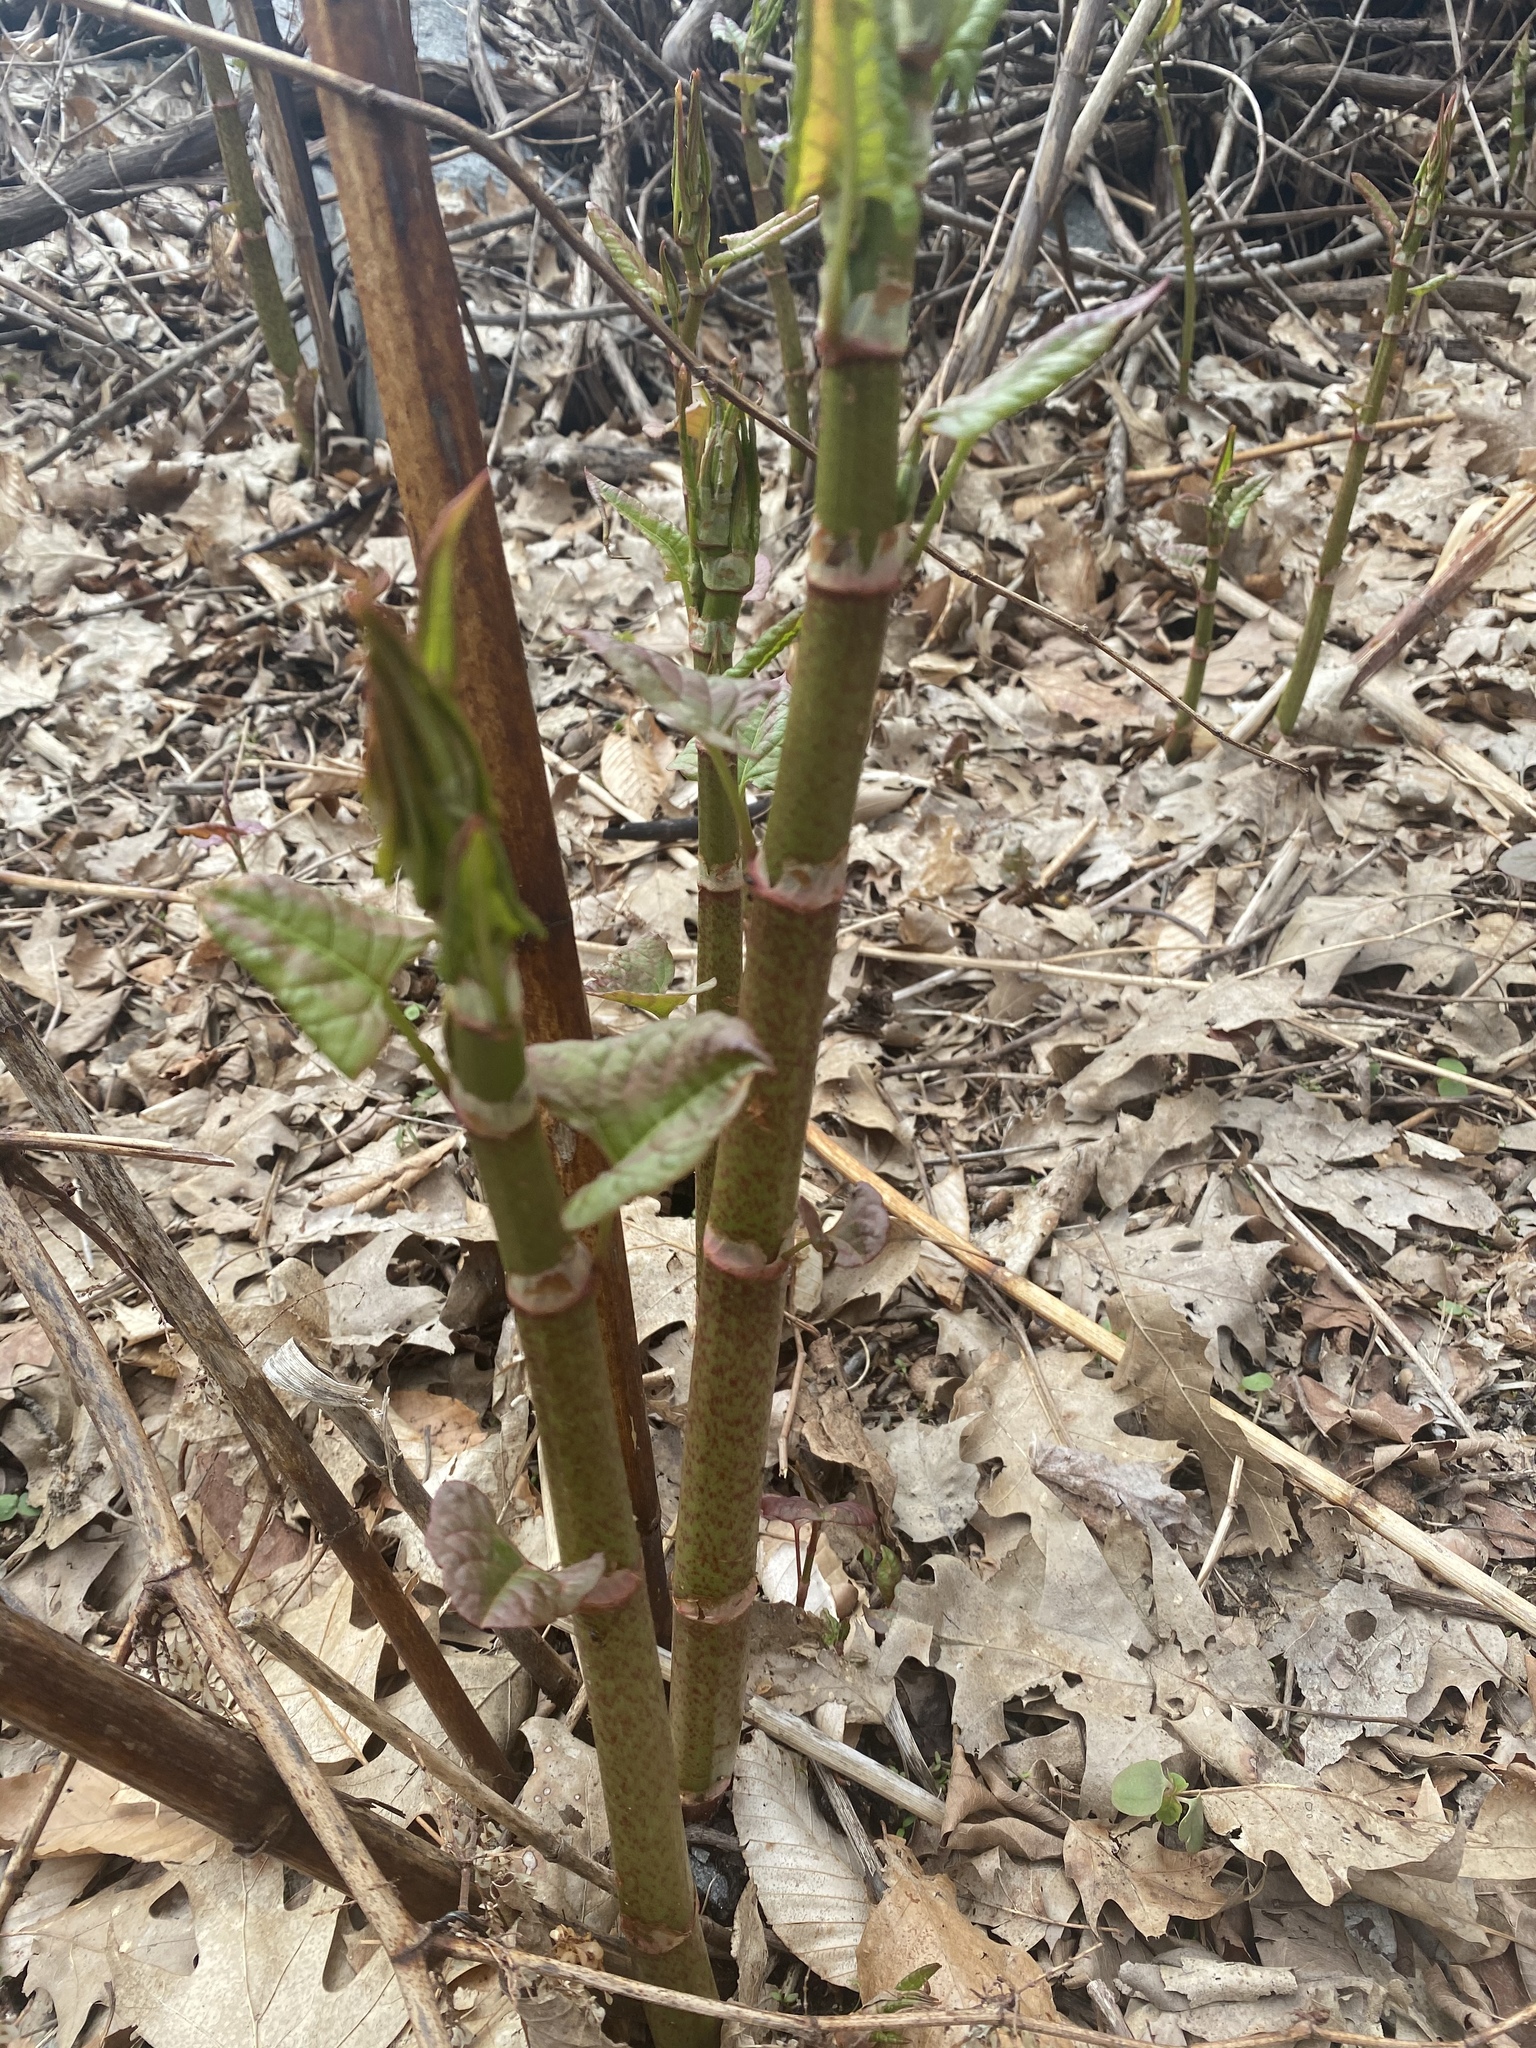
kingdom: Plantae
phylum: Tracheophyta
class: Magnoliopsida
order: Caryophyllales
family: Polygonaceae
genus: Reynoutria
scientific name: Reynoutria japonica
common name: Japanese knotweed
